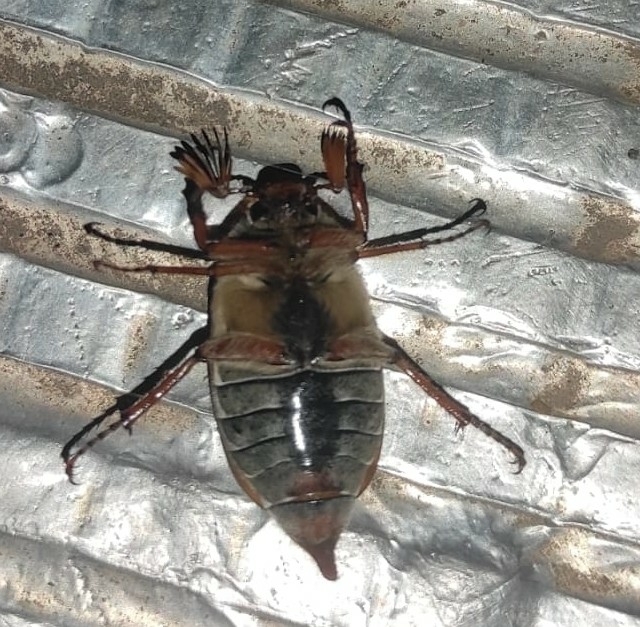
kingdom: Animalia
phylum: Arthropoda
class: Insecta
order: Coleoptera
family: Scarabaeidae
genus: Melolontha
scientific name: Melolontha melolontha
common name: Cockchafer maybeetle
